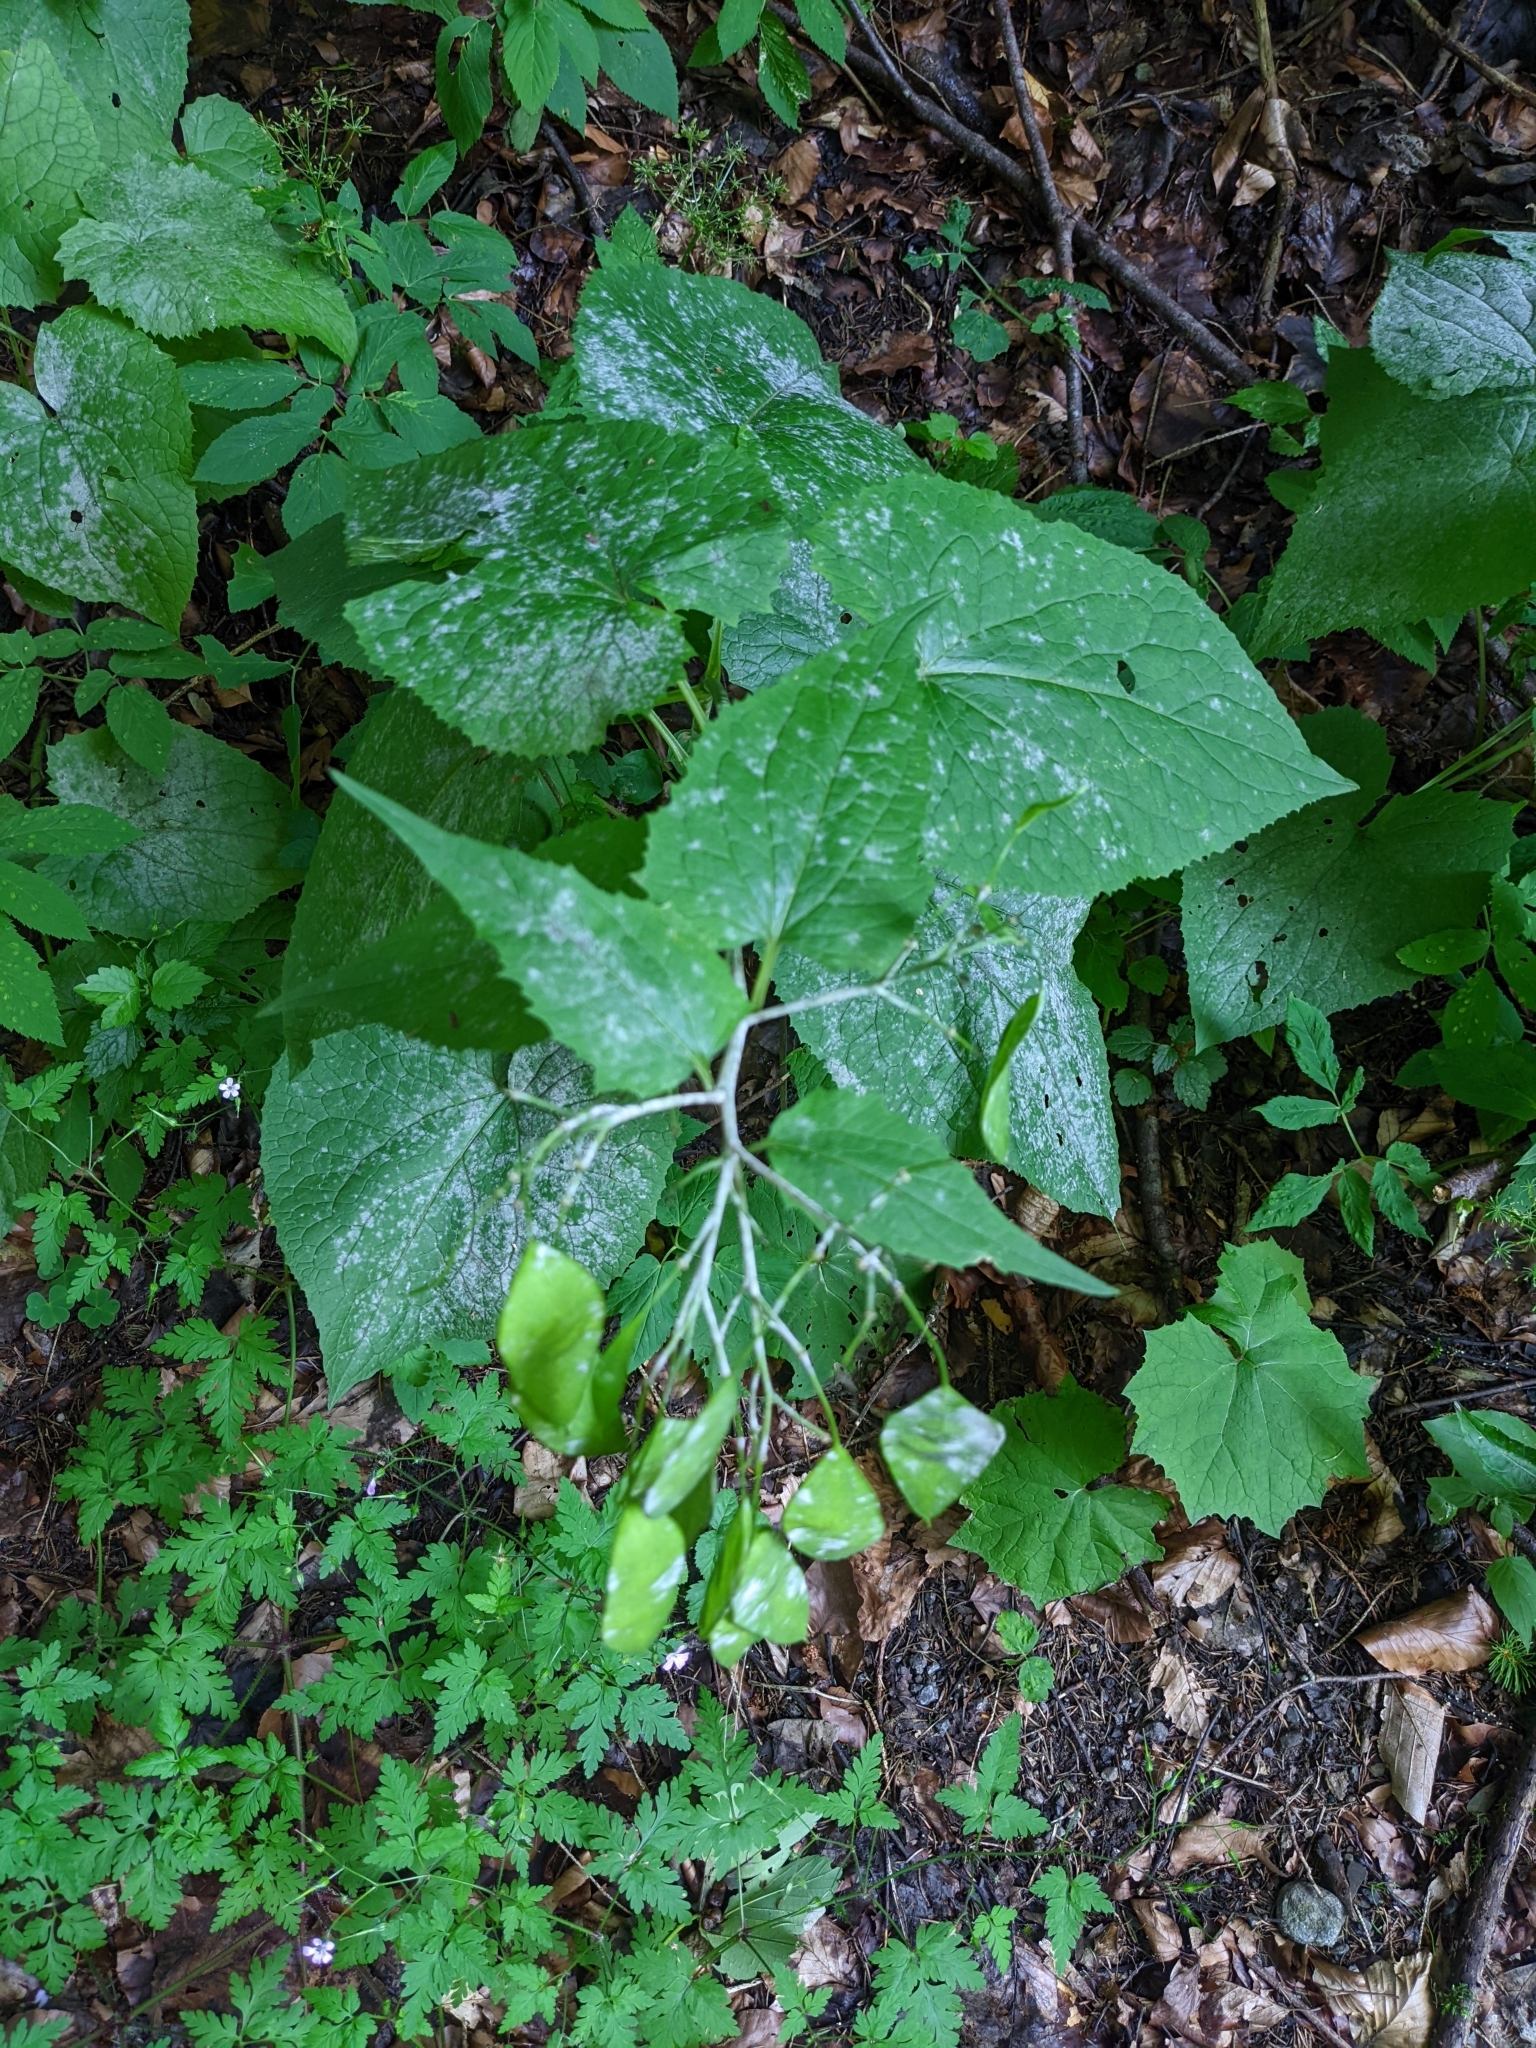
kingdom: Plantae
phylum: Tracheophyta
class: Magnoliopsida
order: Brassicales
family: Brassicaceae
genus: Lunaria
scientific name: Lunaria rediviva
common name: Perennial honesty
